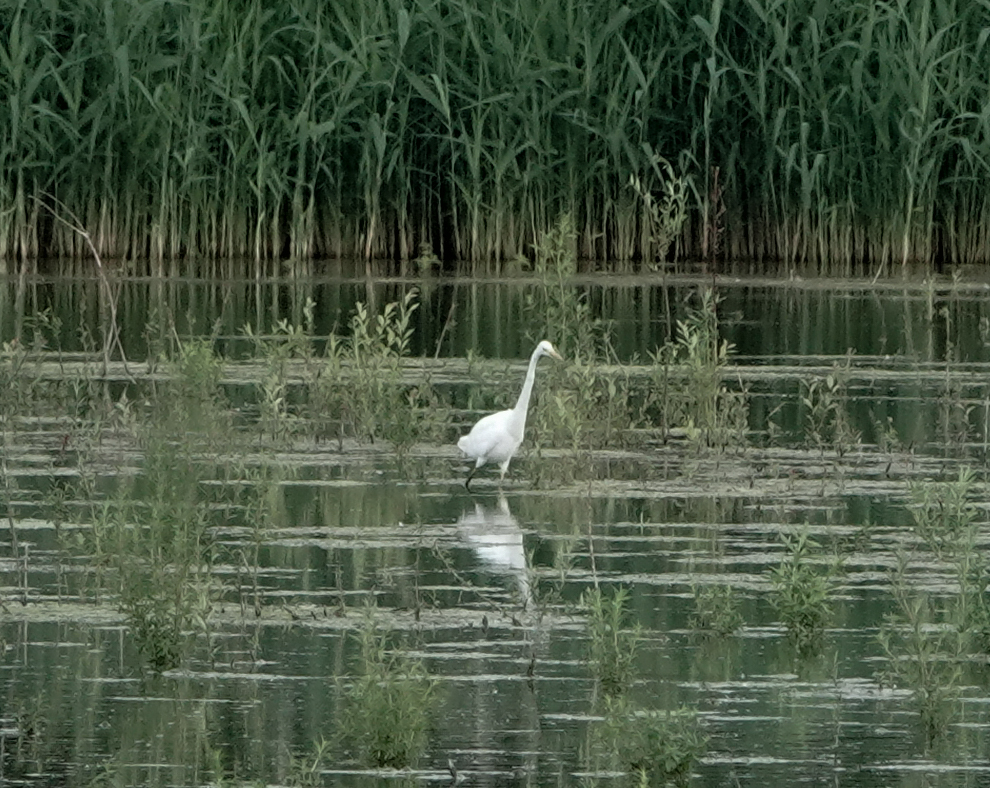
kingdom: Animalia
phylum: Chordata
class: Aves
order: Pelecaniformes
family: Ardeidae
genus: Ardea
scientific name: Ardea alba
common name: Great egret
